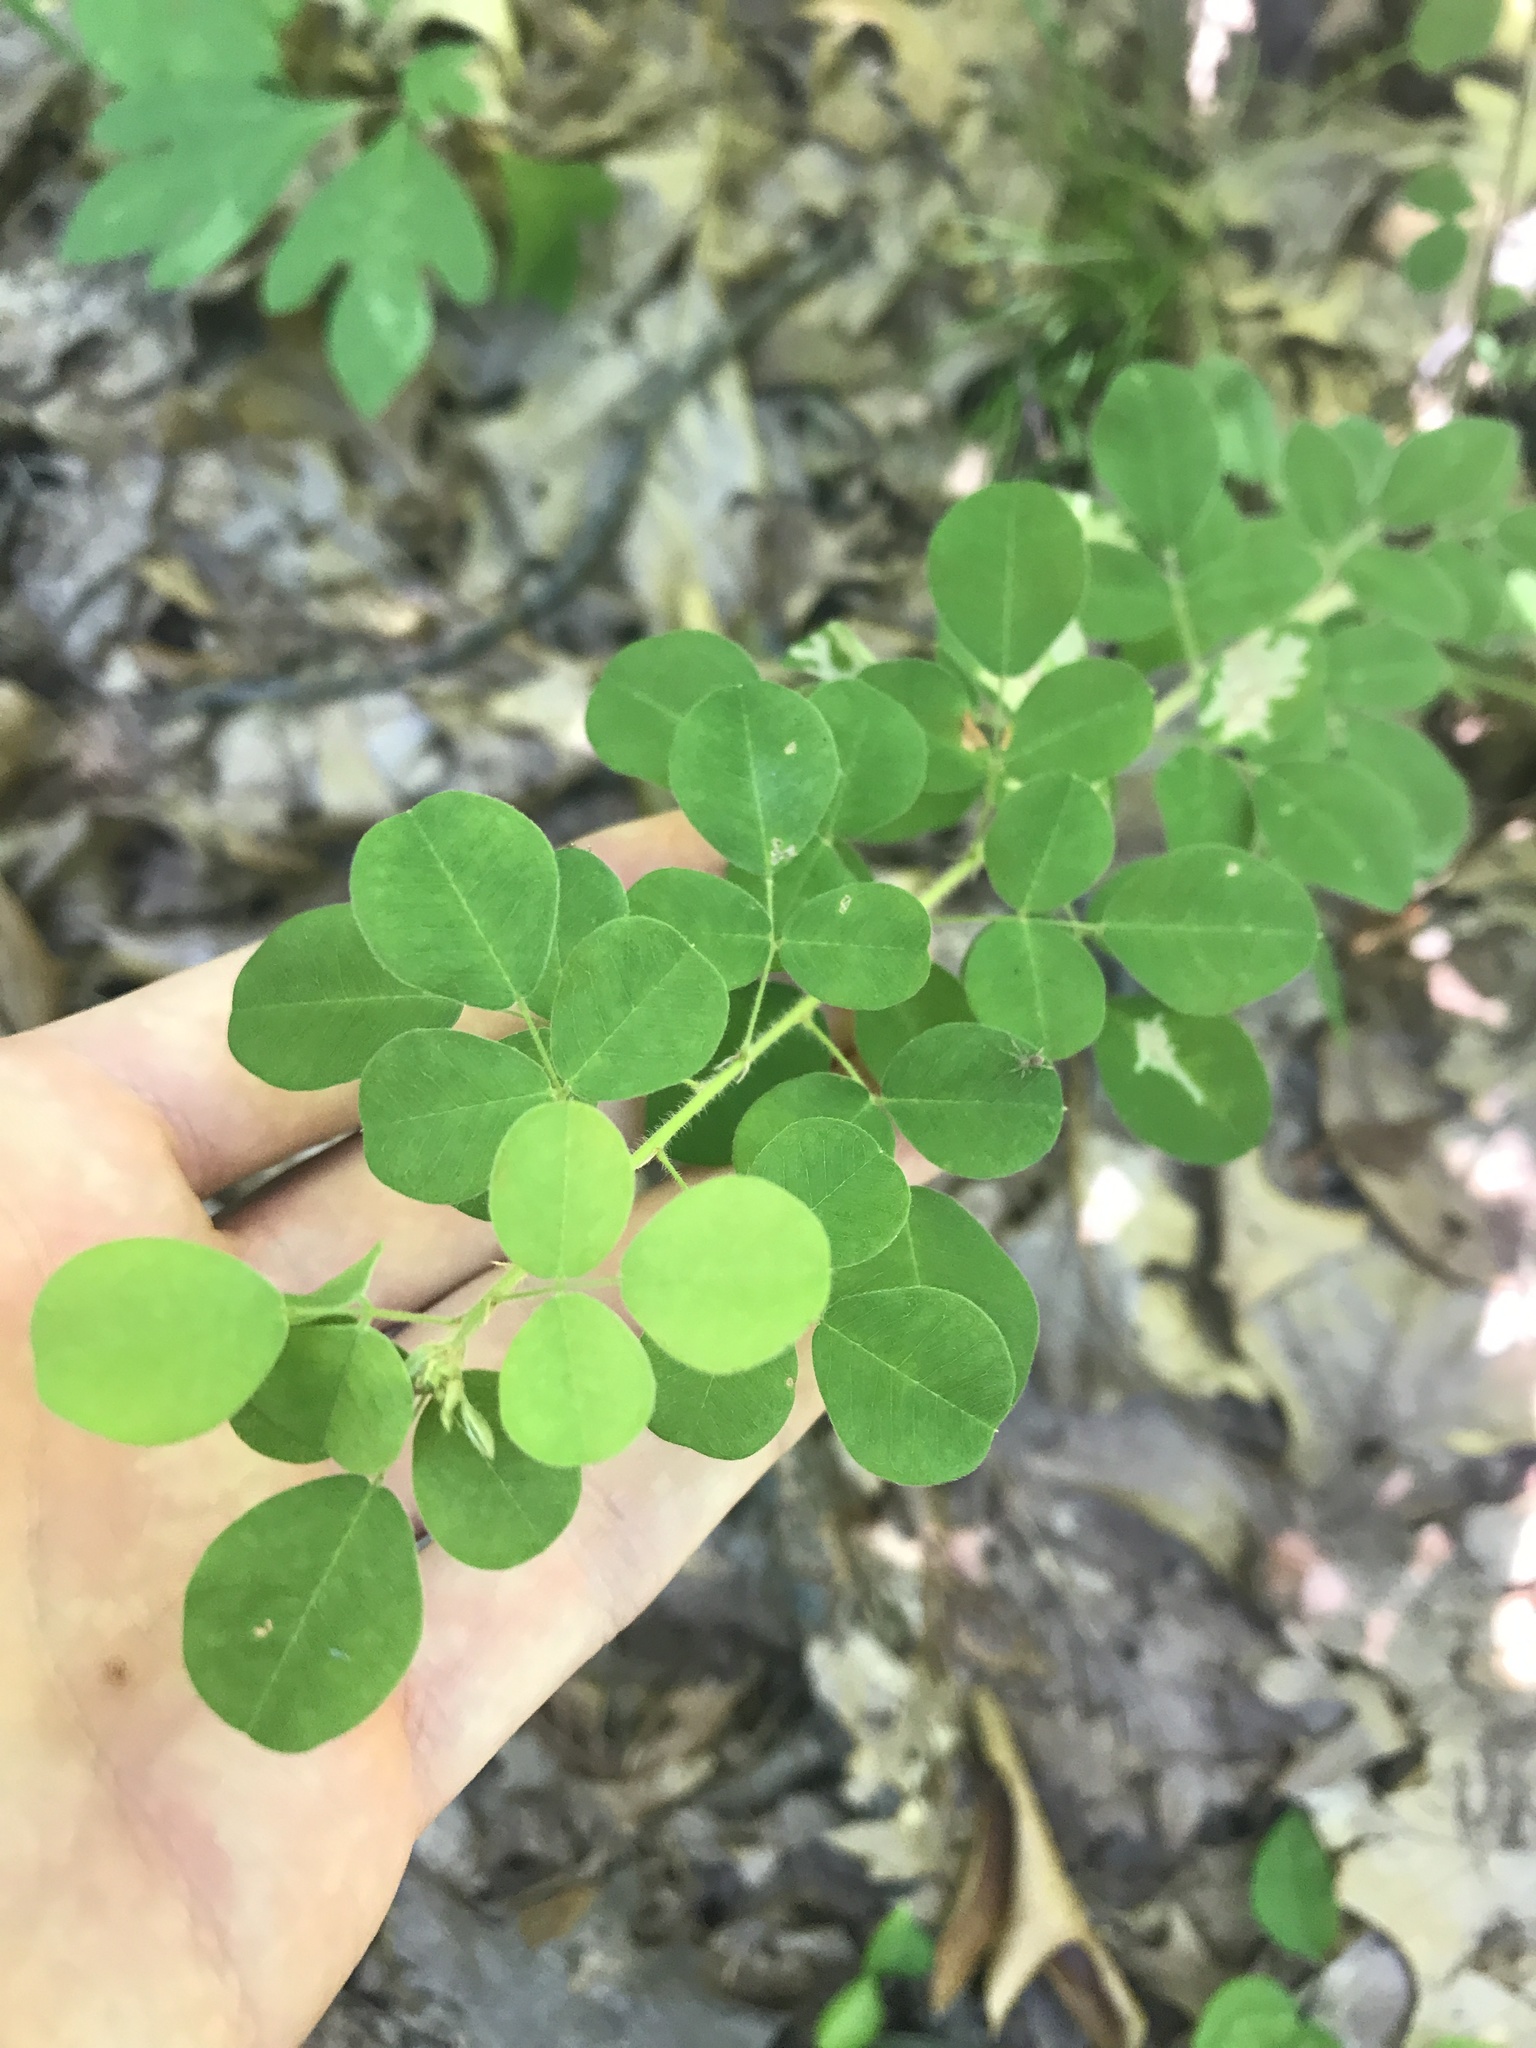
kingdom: Plantae
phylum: Tracheophyta
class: Magnoliopsida
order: Fabales
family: Fabaceae
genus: Lespedeza
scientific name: Lespedeza hirta
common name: Hairy lespedeza
